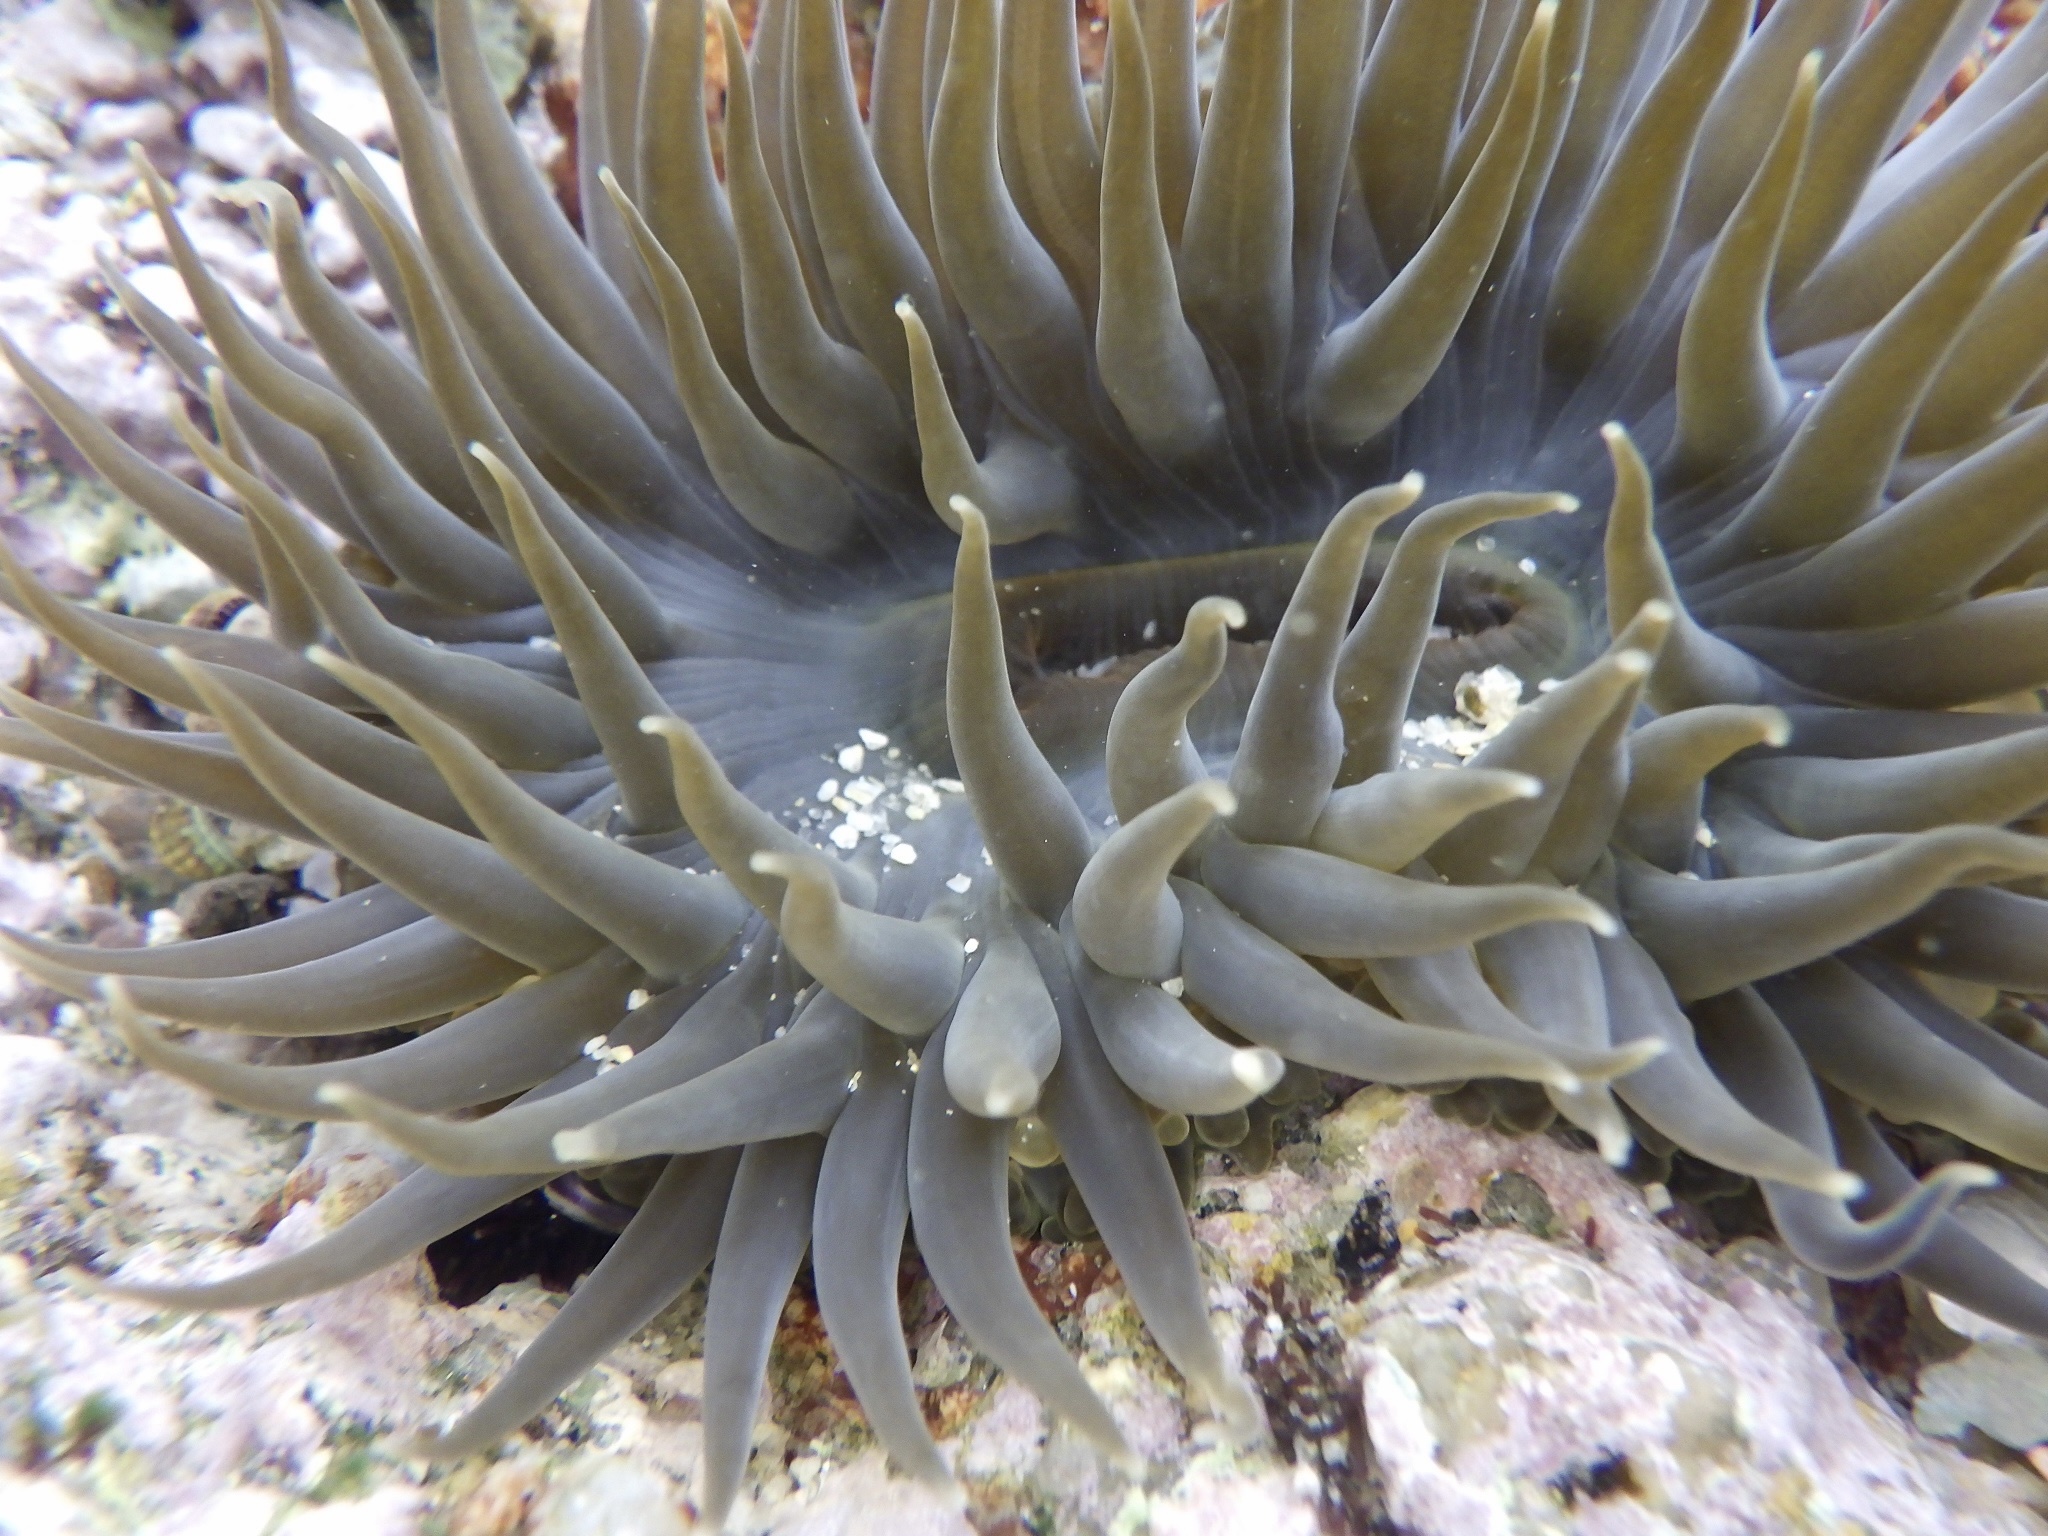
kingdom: Animalia
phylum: Cnidaria
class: Anthozoa
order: Actiniaria
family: Actiniidae
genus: Anthopleura
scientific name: Anthopleura inornata
